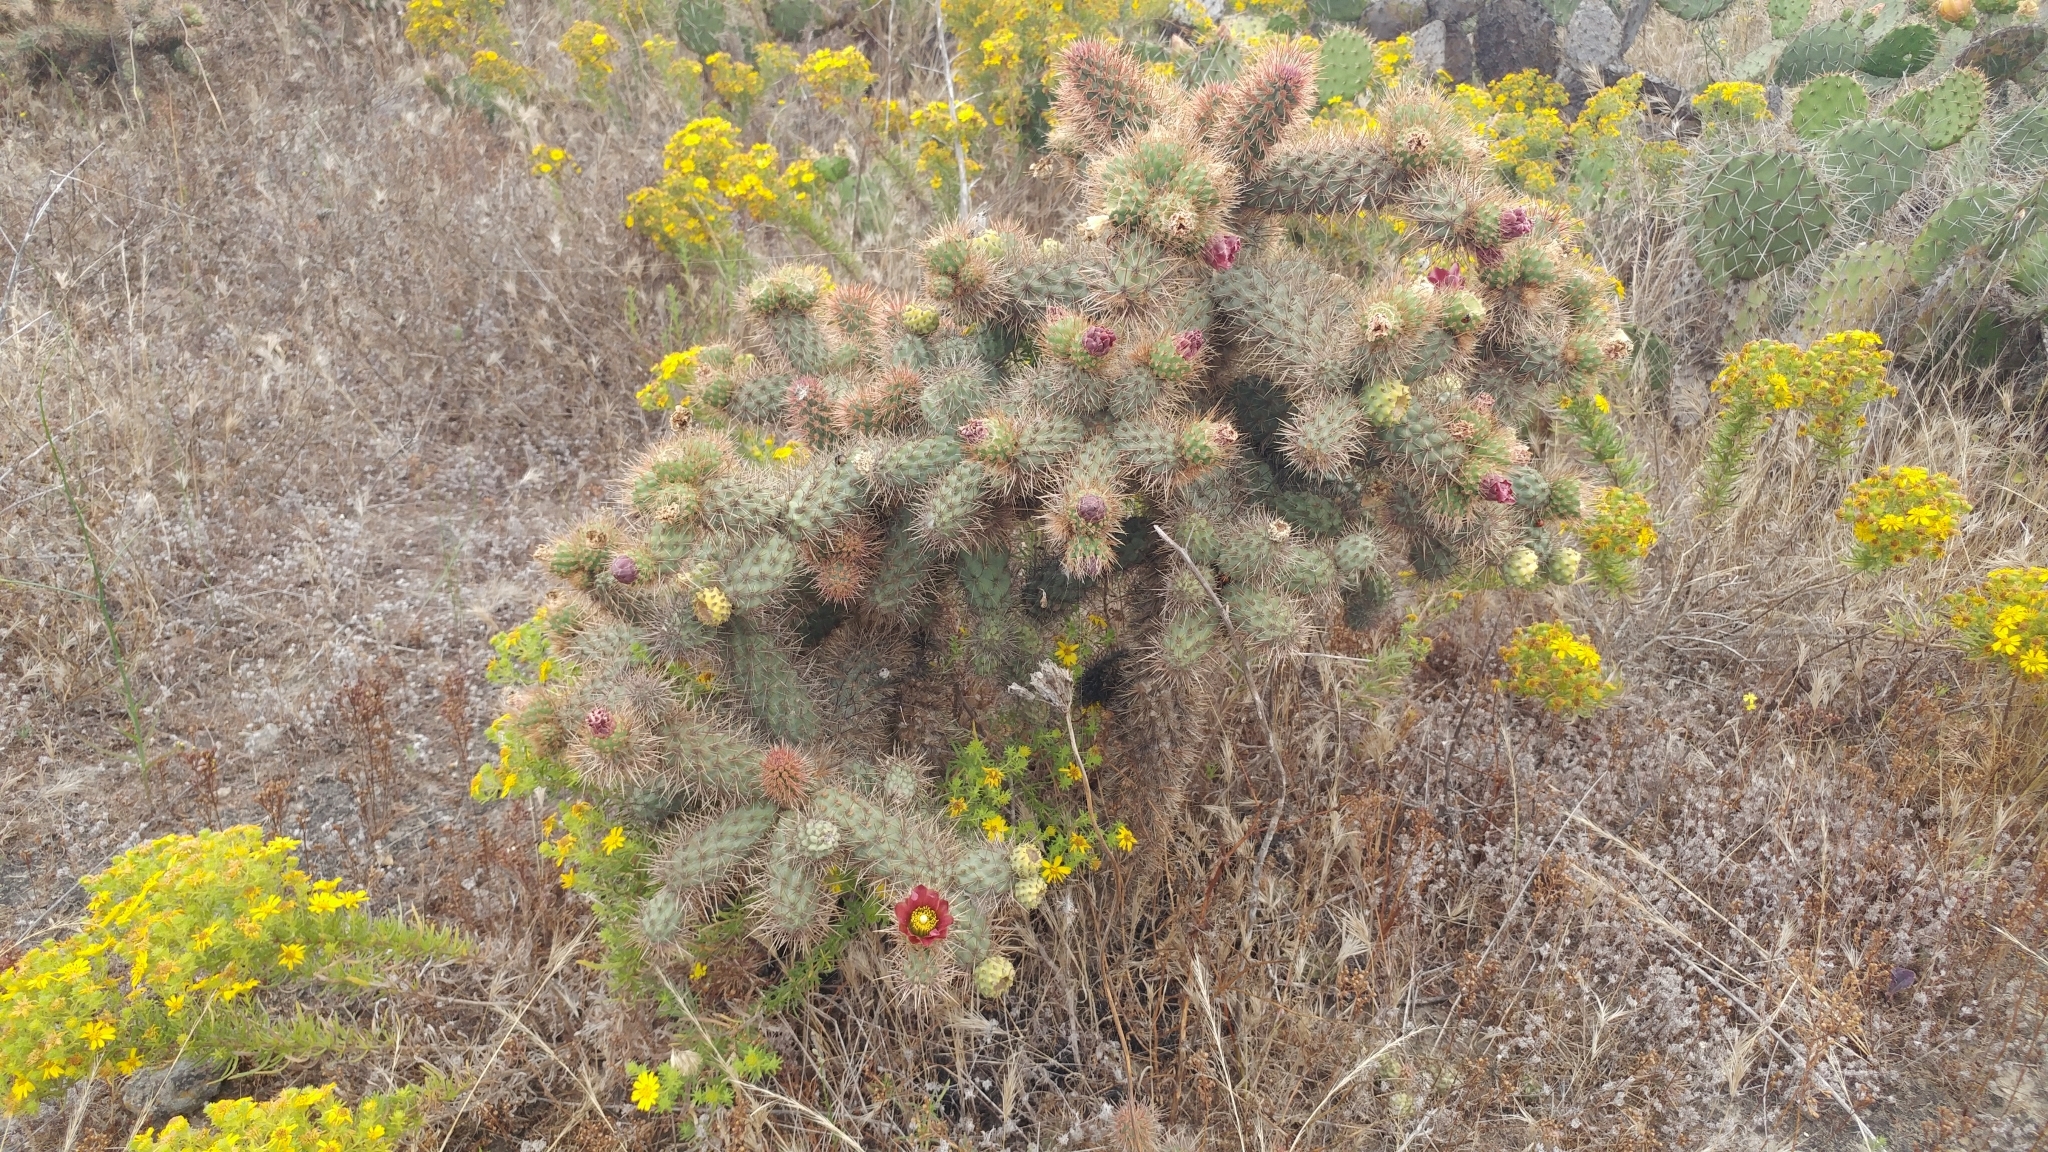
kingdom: Plantae
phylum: Tracheophyta
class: Magnoliopsida
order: Caryophyllales
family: Cactaceae
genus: Cylindropuntia
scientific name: Cylindropuntia prolifera
